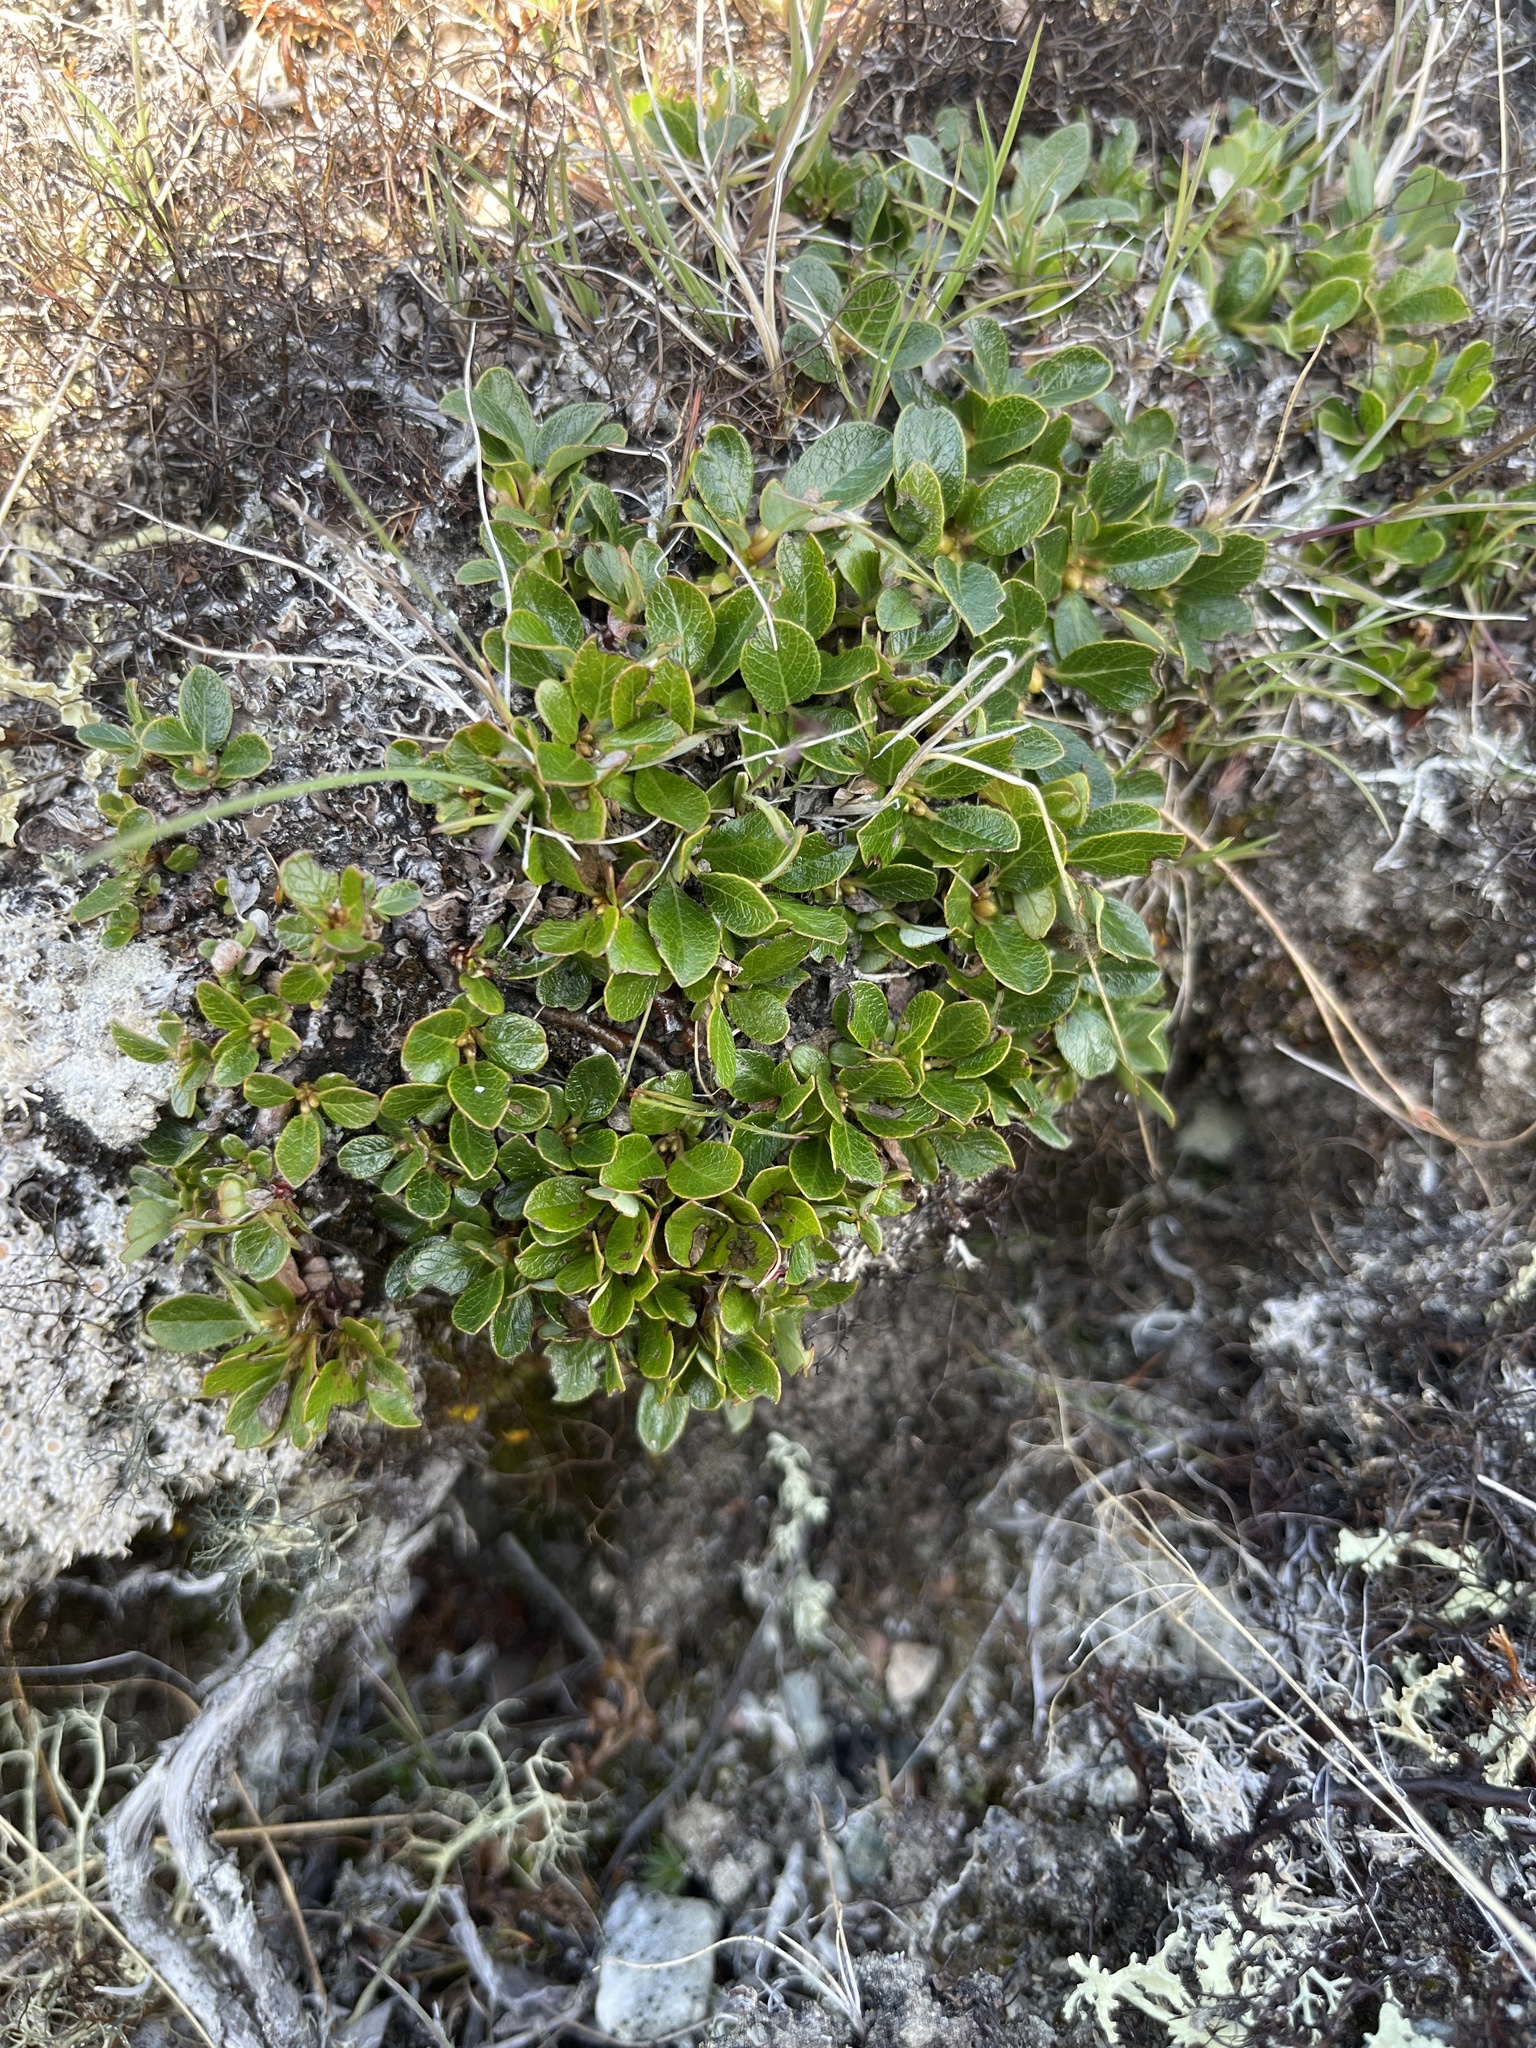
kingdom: Plantae
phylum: Tracheophyta
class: Magnoliopsida
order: Malpighiales
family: Salicaceae
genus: Salix
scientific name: Salix uva-ursi
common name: Bearberry willow
